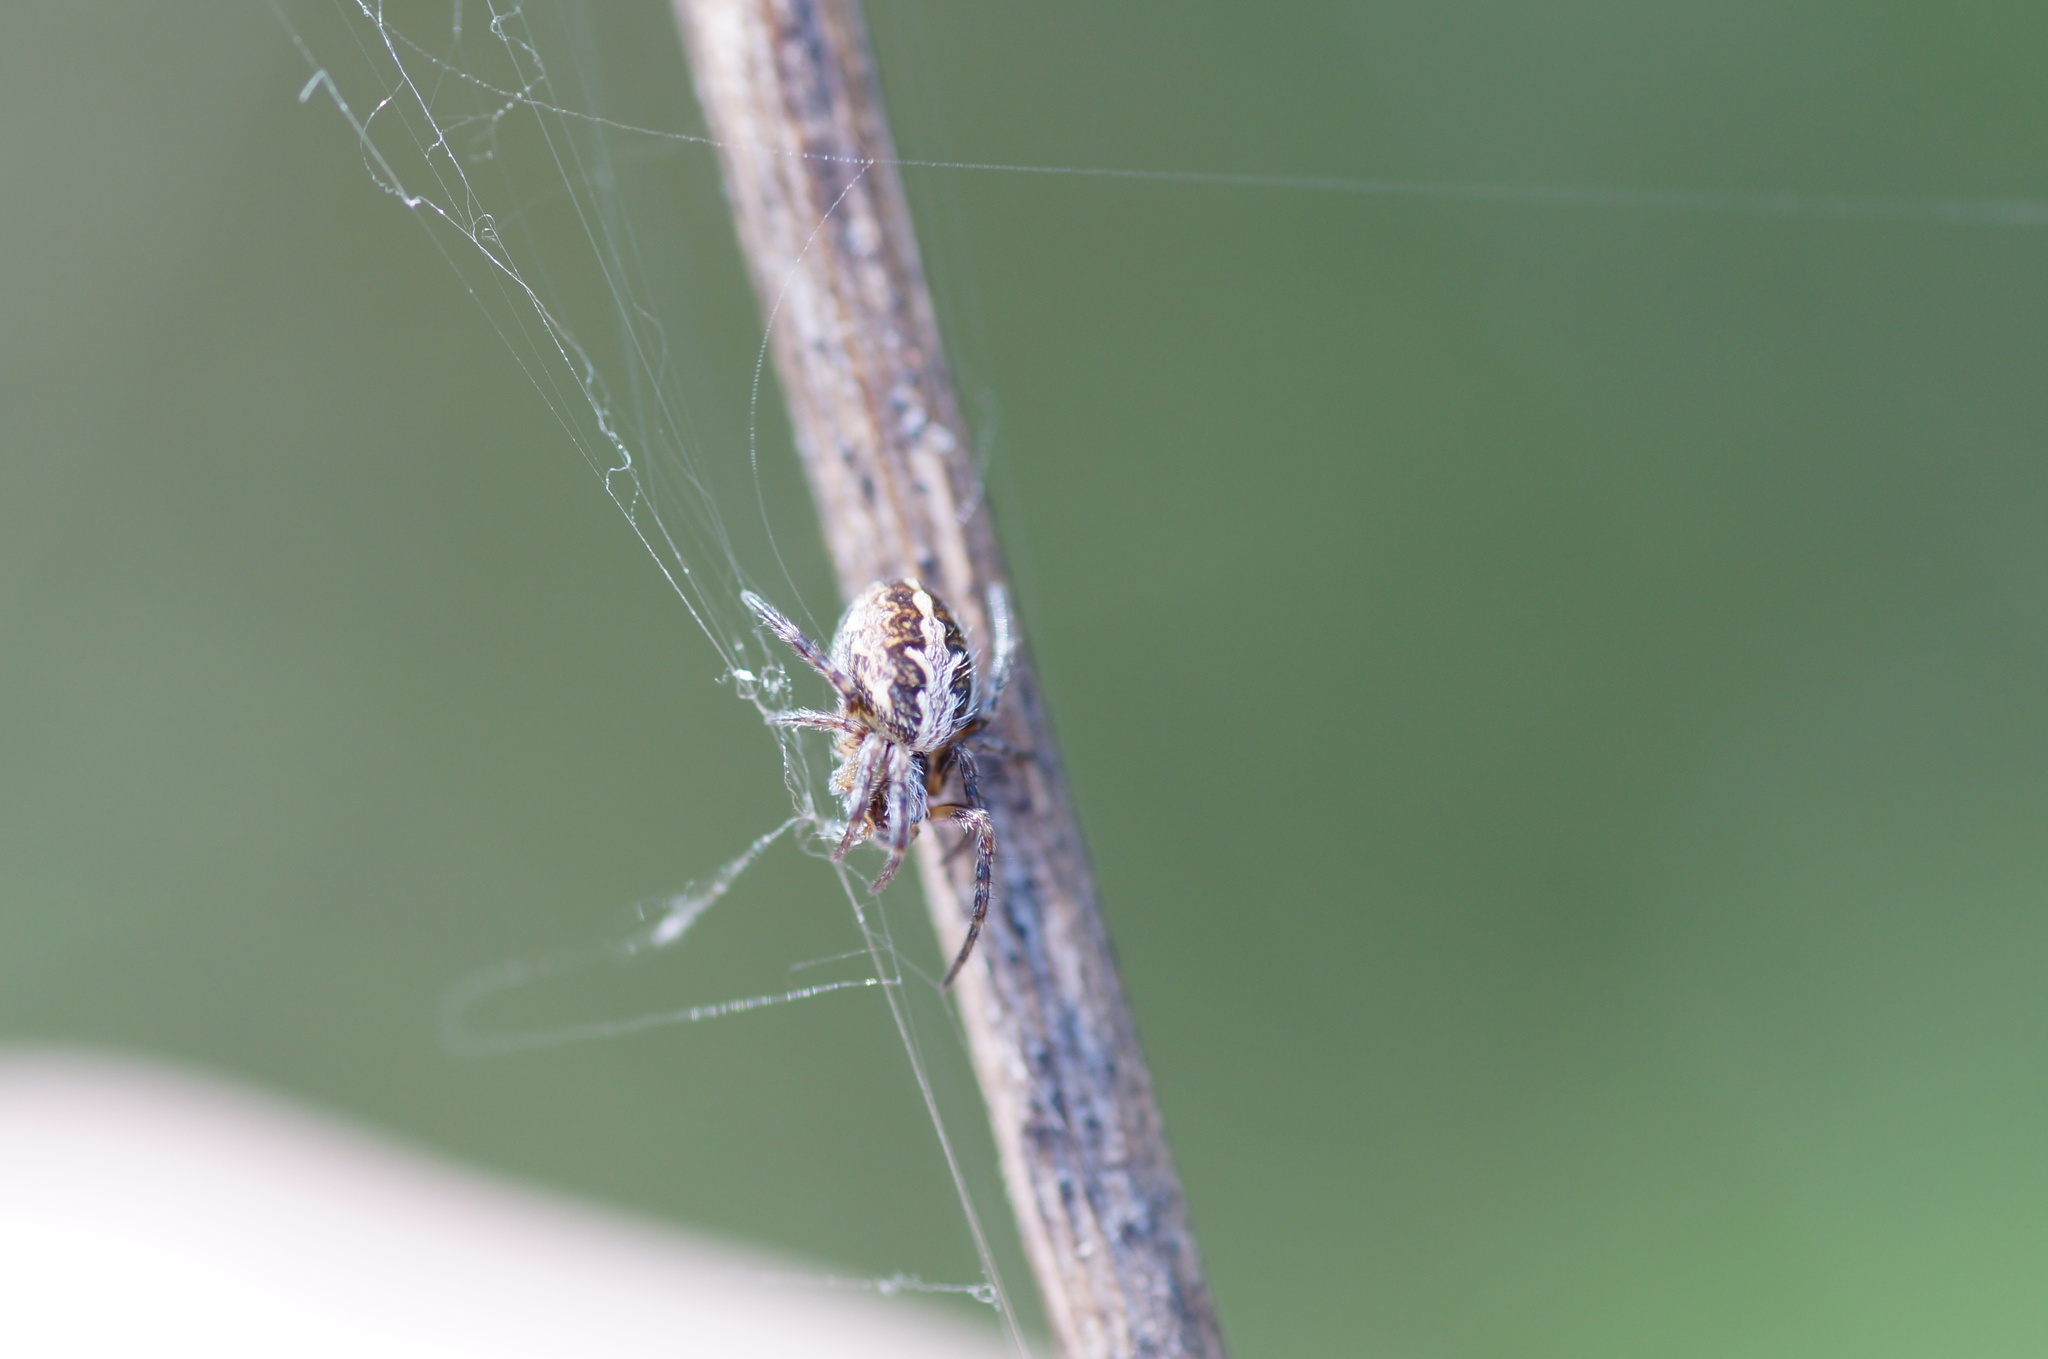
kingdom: Animalia
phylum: Arthropoda
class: Arachnida
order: Araneae
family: Araneidae
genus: Aculepeira
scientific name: Aculepeira ceropegia
